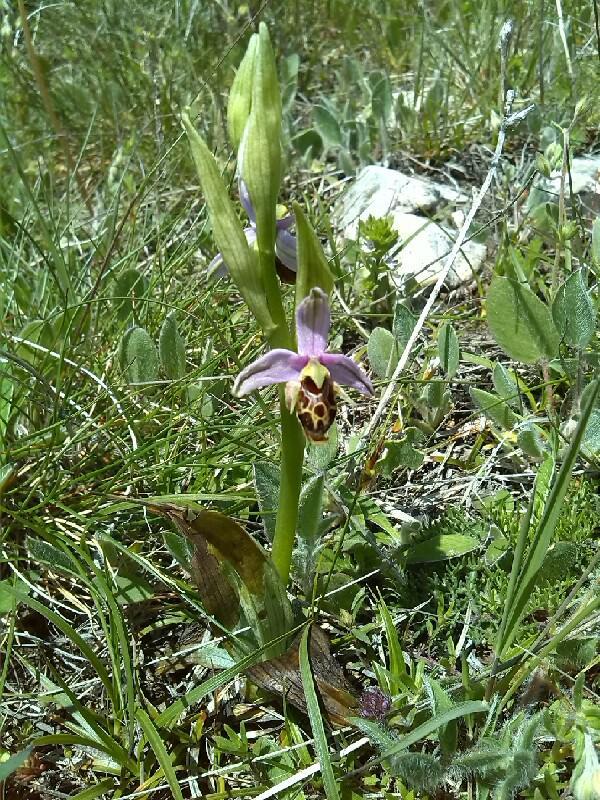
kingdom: Plantae
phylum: Tracheophyta
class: Liliopsida
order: Asparagales
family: Orchidaceae
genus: Ophrys
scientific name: Ophrys scolopax
